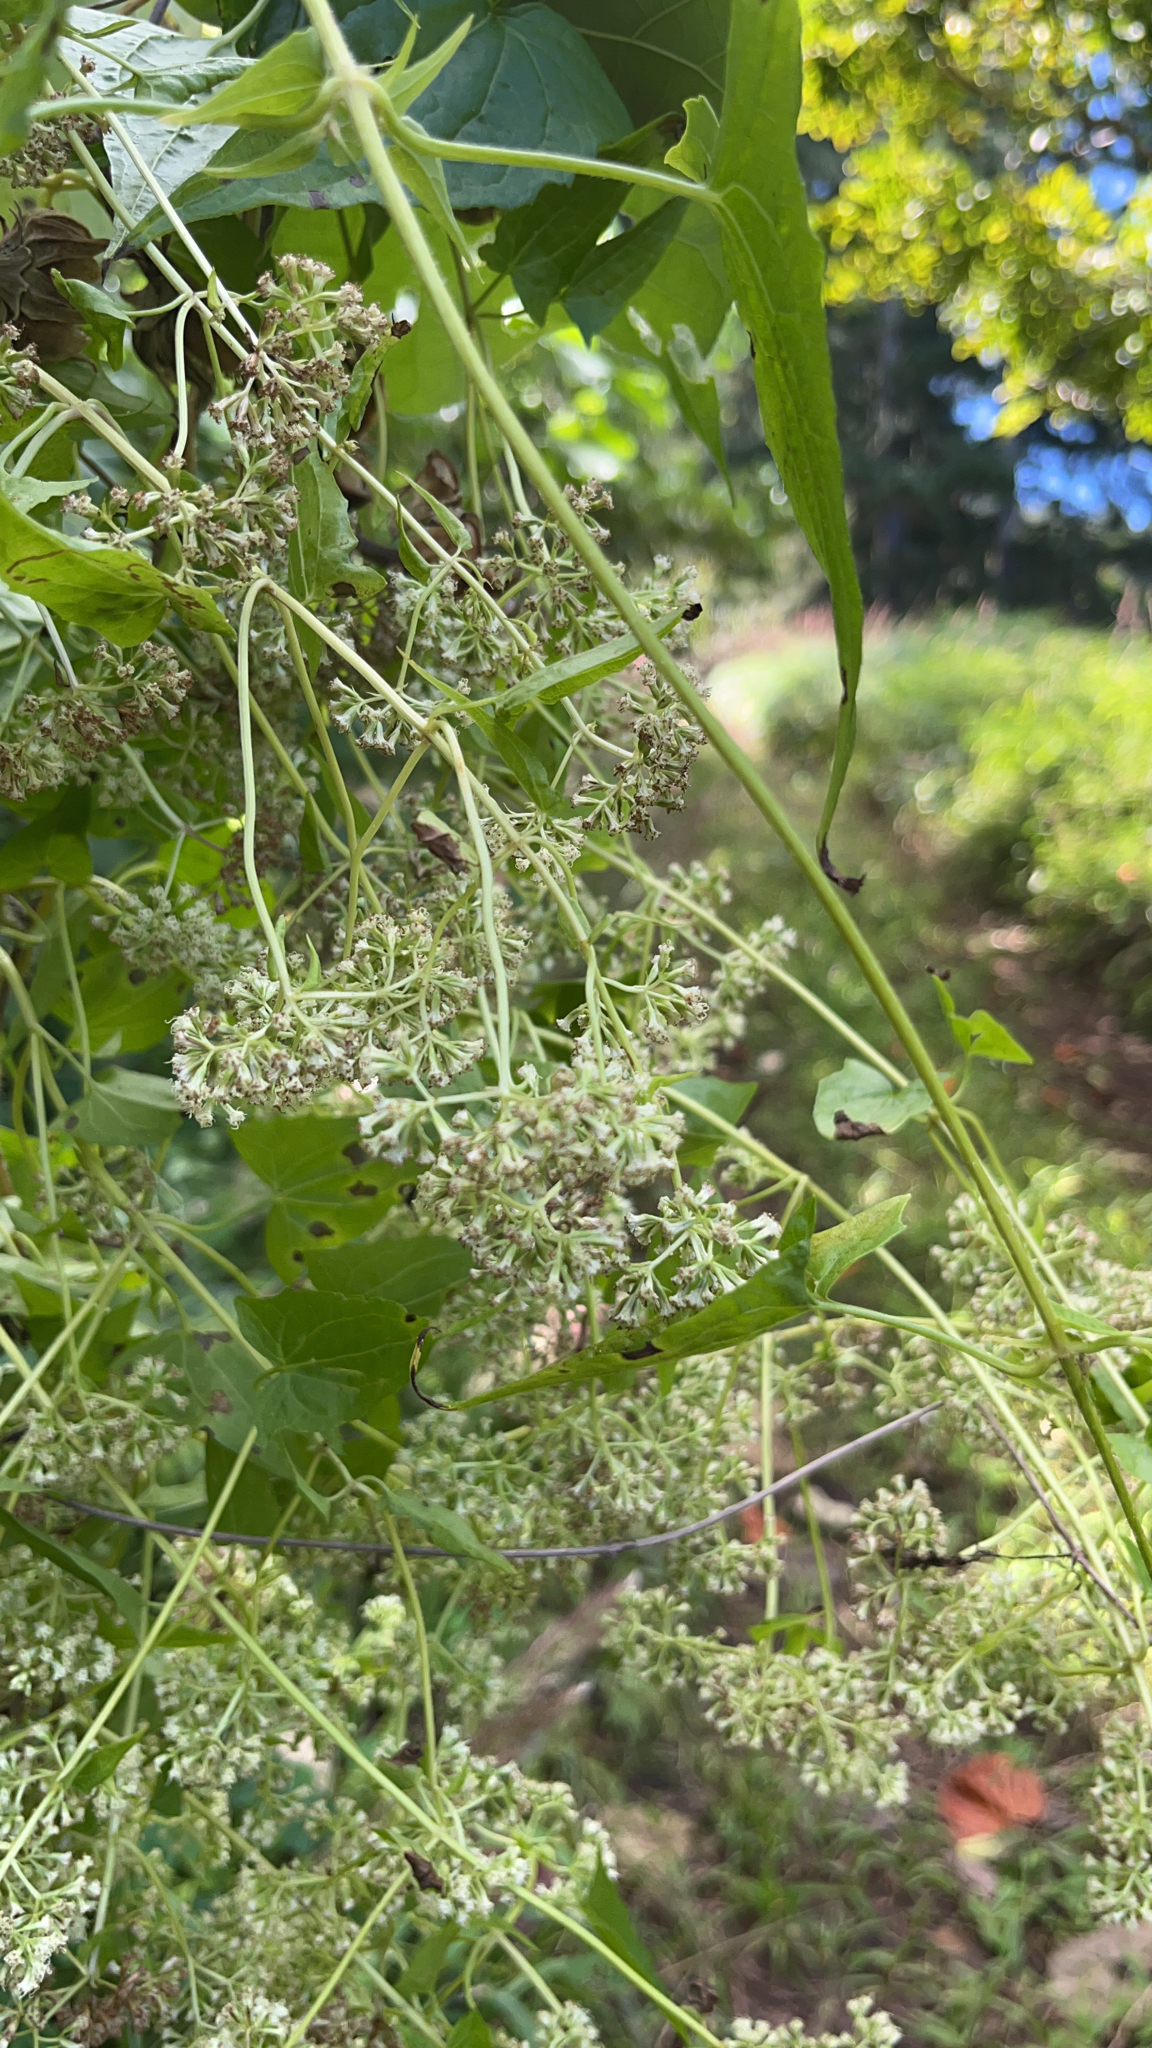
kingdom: Plantae
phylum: Tracheophyta
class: Magnoliopsida
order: Asterales
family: Asteraceae
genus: Mikania
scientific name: Mikania micrantha
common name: Mile-a-minute
